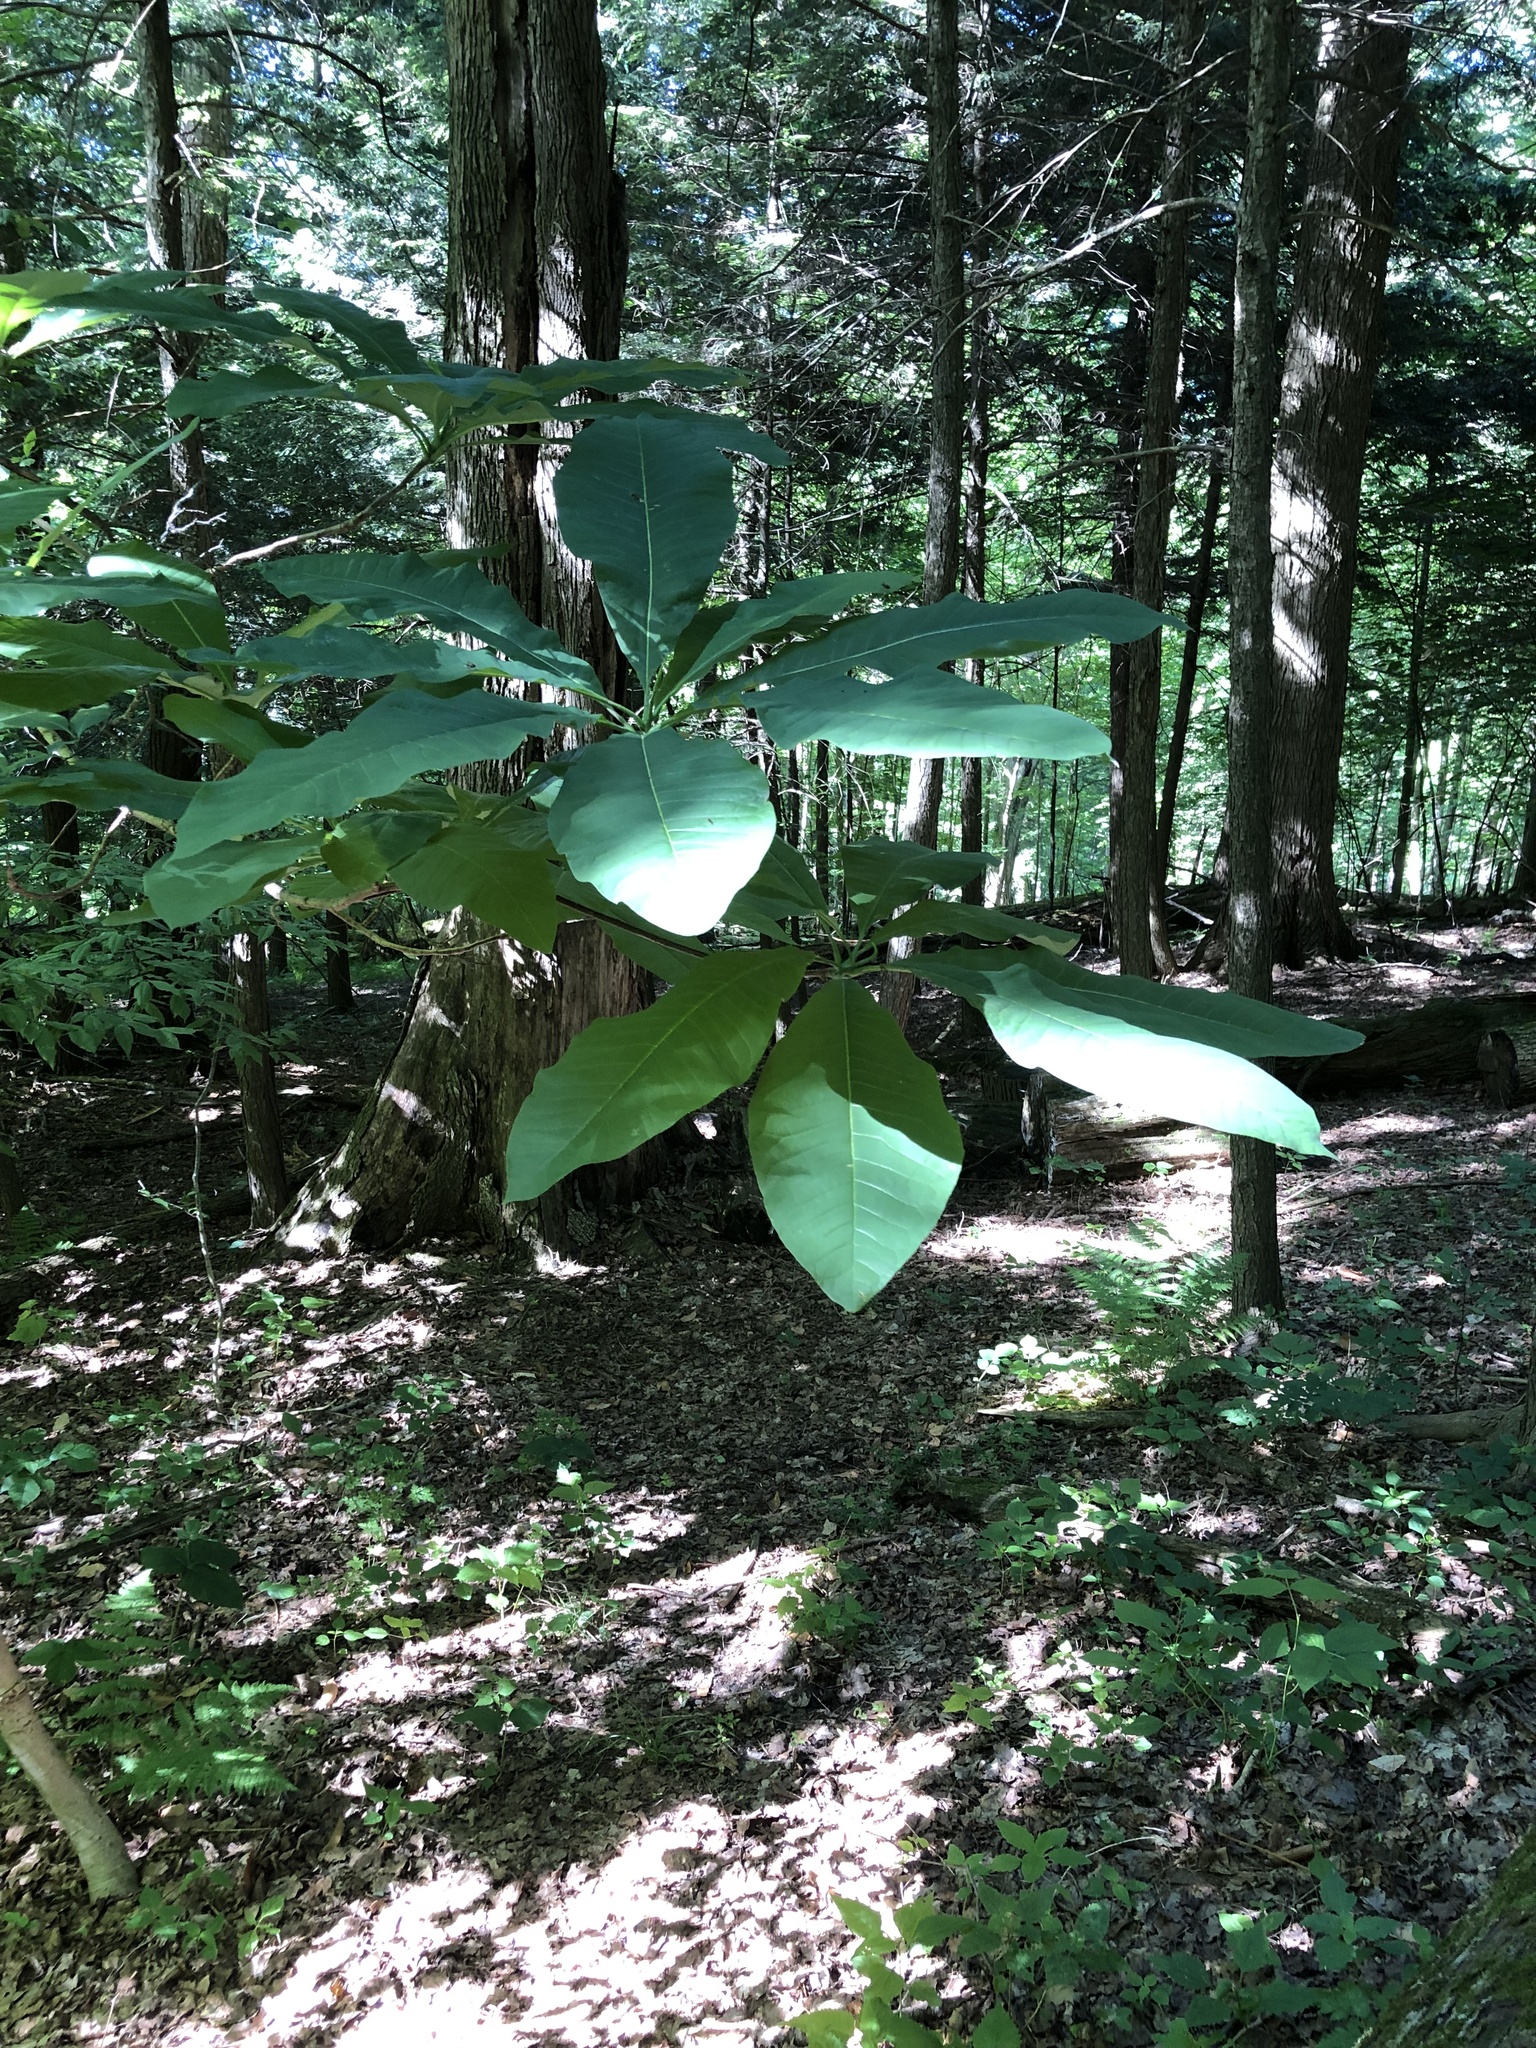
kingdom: Plantae
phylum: Tracheophyta
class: Magnoliopsida
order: Magnoliales
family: Magnoliaceae
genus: Magnolia
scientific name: Magnolia tripetala
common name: Umbrella magnolia
